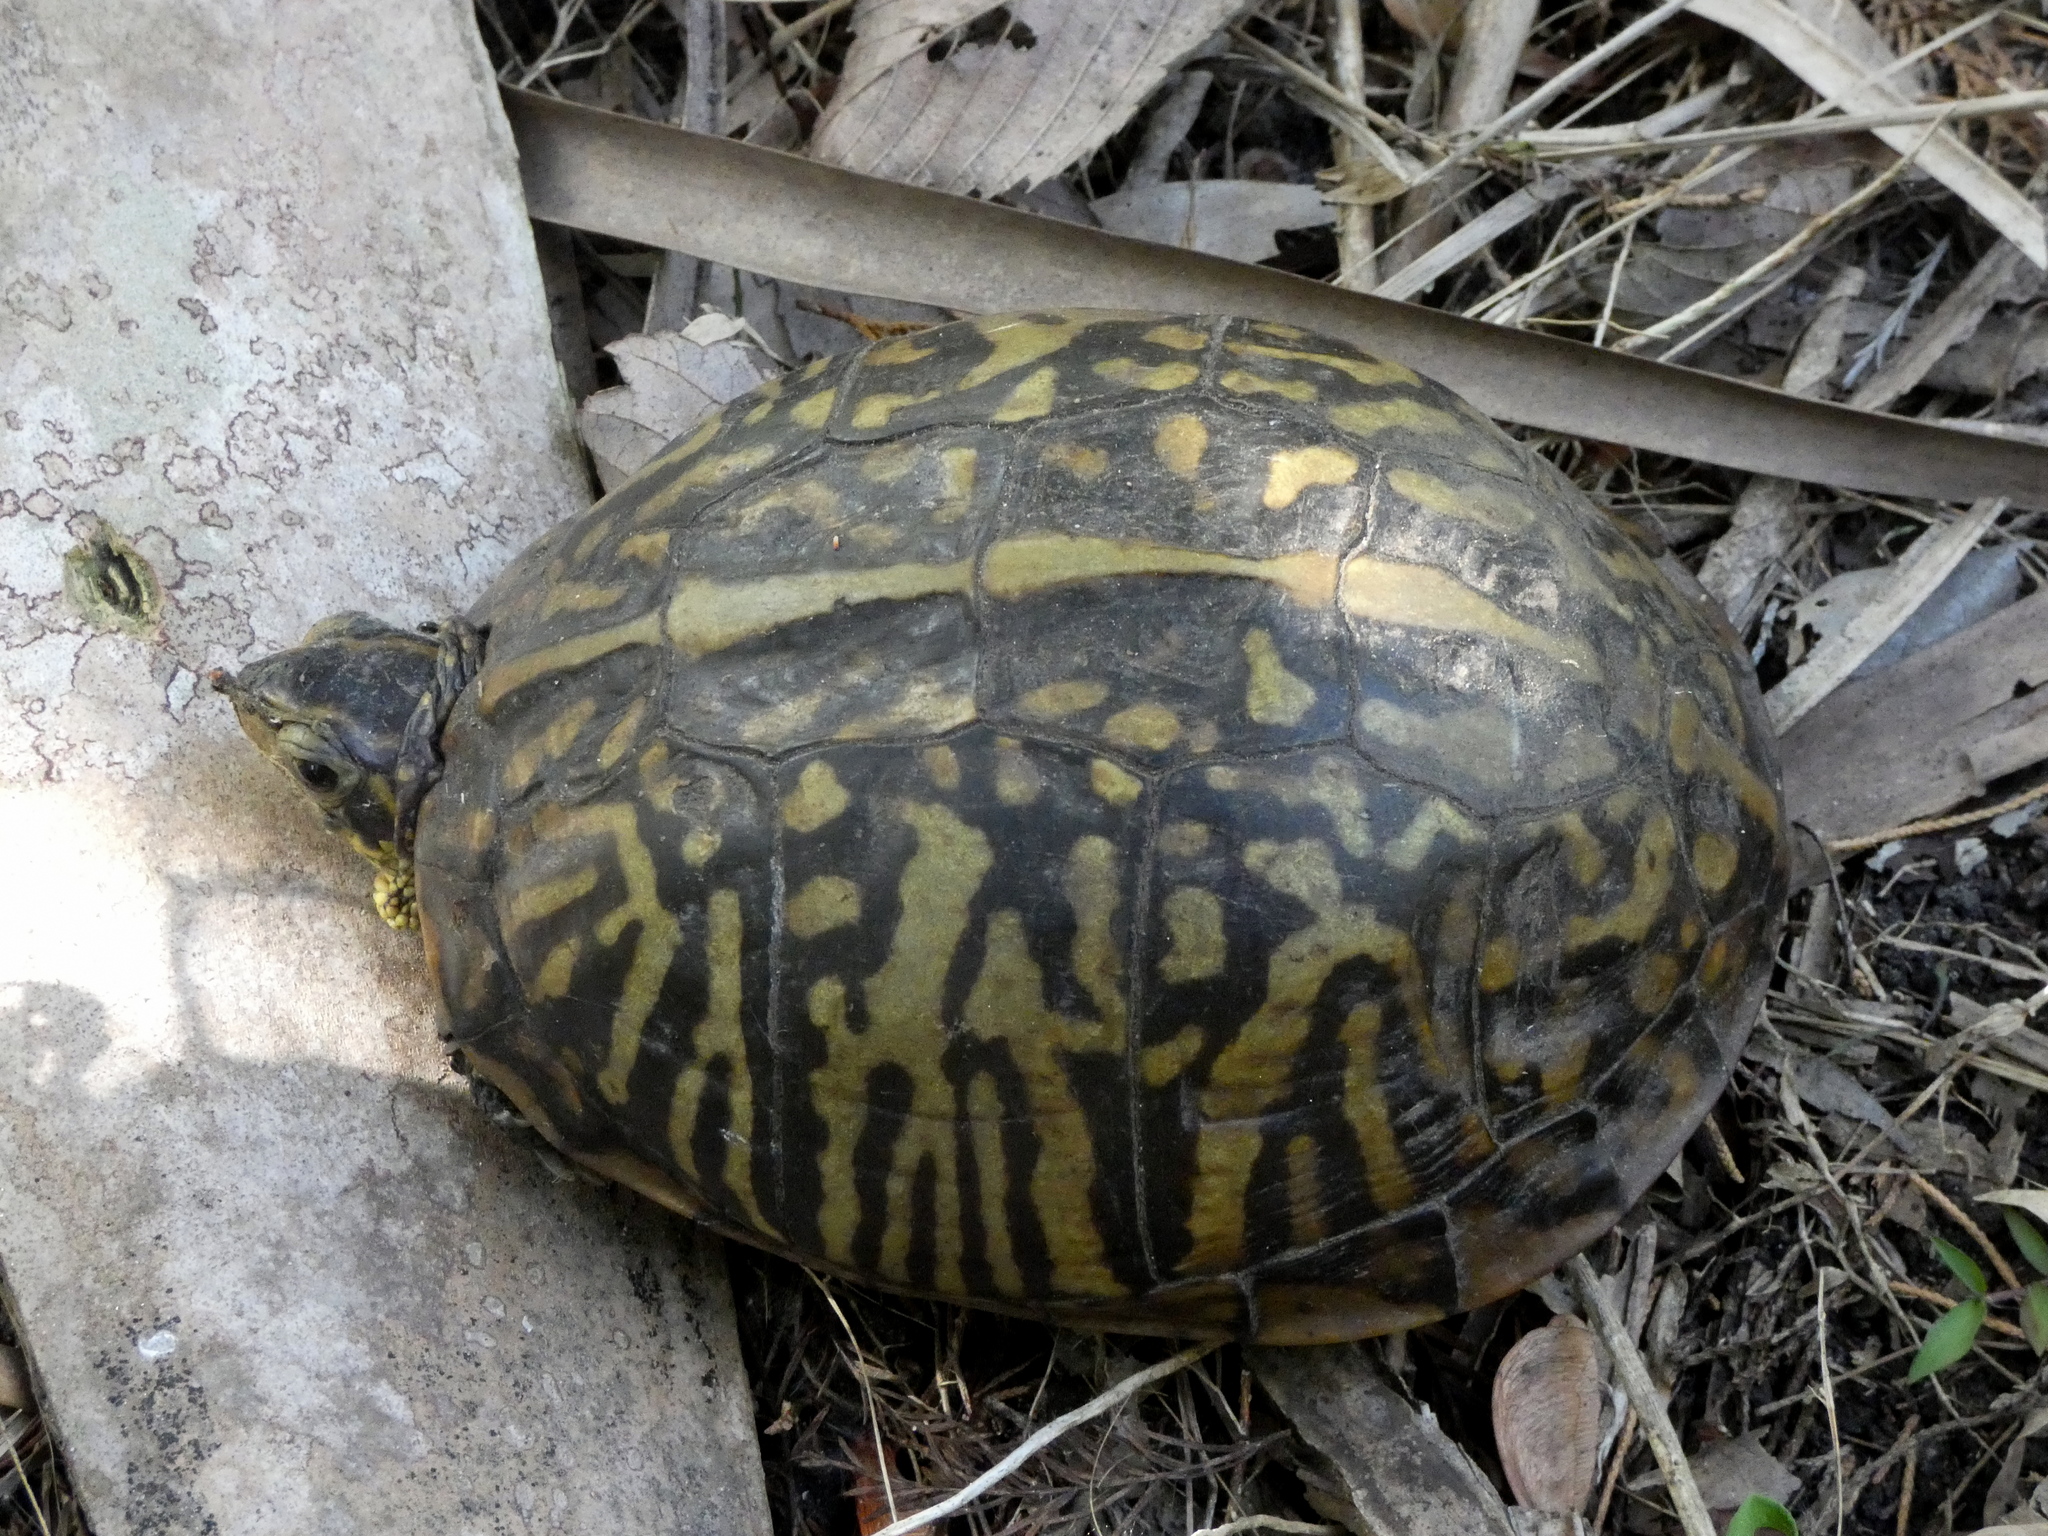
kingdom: Animalia
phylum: Chordata
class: Testudines
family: Emydidae
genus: Terrapene
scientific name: Terrapene carolina
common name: Common box turtle
